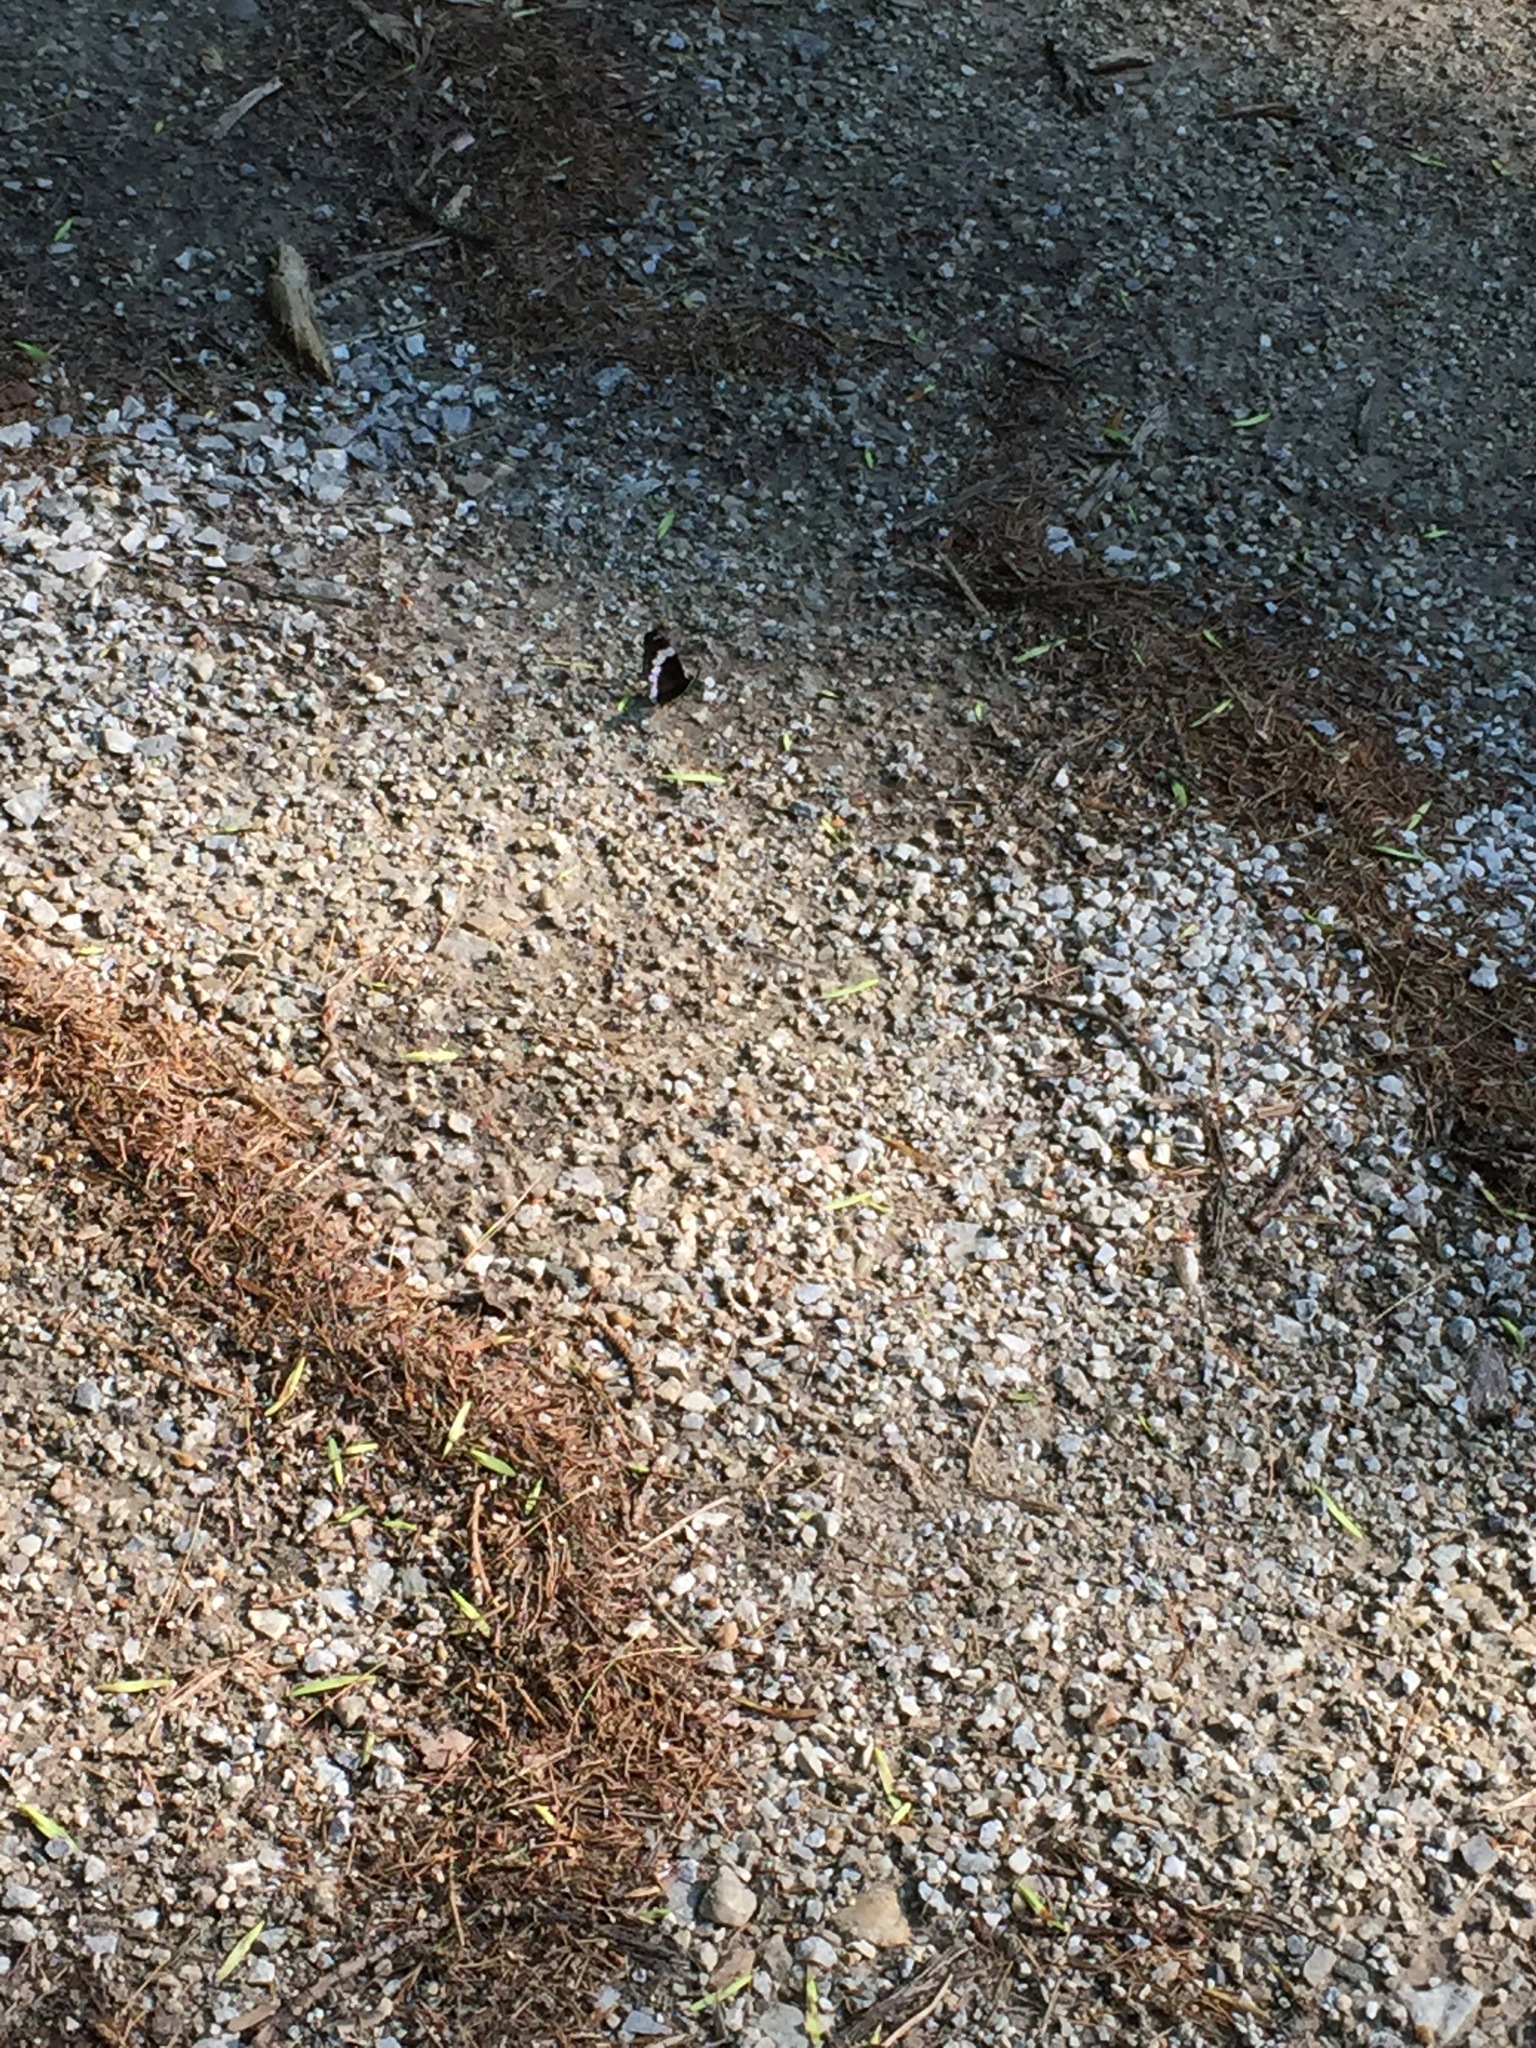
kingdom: Animalia
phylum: Arthropoda
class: Insecta
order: Lepidoptera
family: Nymphalidae
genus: Limenitis
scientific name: Limenitis arthemis
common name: Red-spotted admiral
